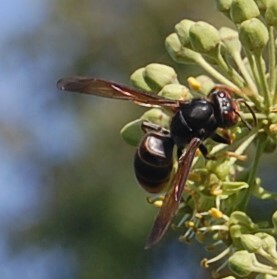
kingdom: Animalia
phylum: Arthropoda
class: Insecta
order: Hymenoptera
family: Vespidae
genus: Vespa
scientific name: Vespa velutina
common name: Asian hornet
